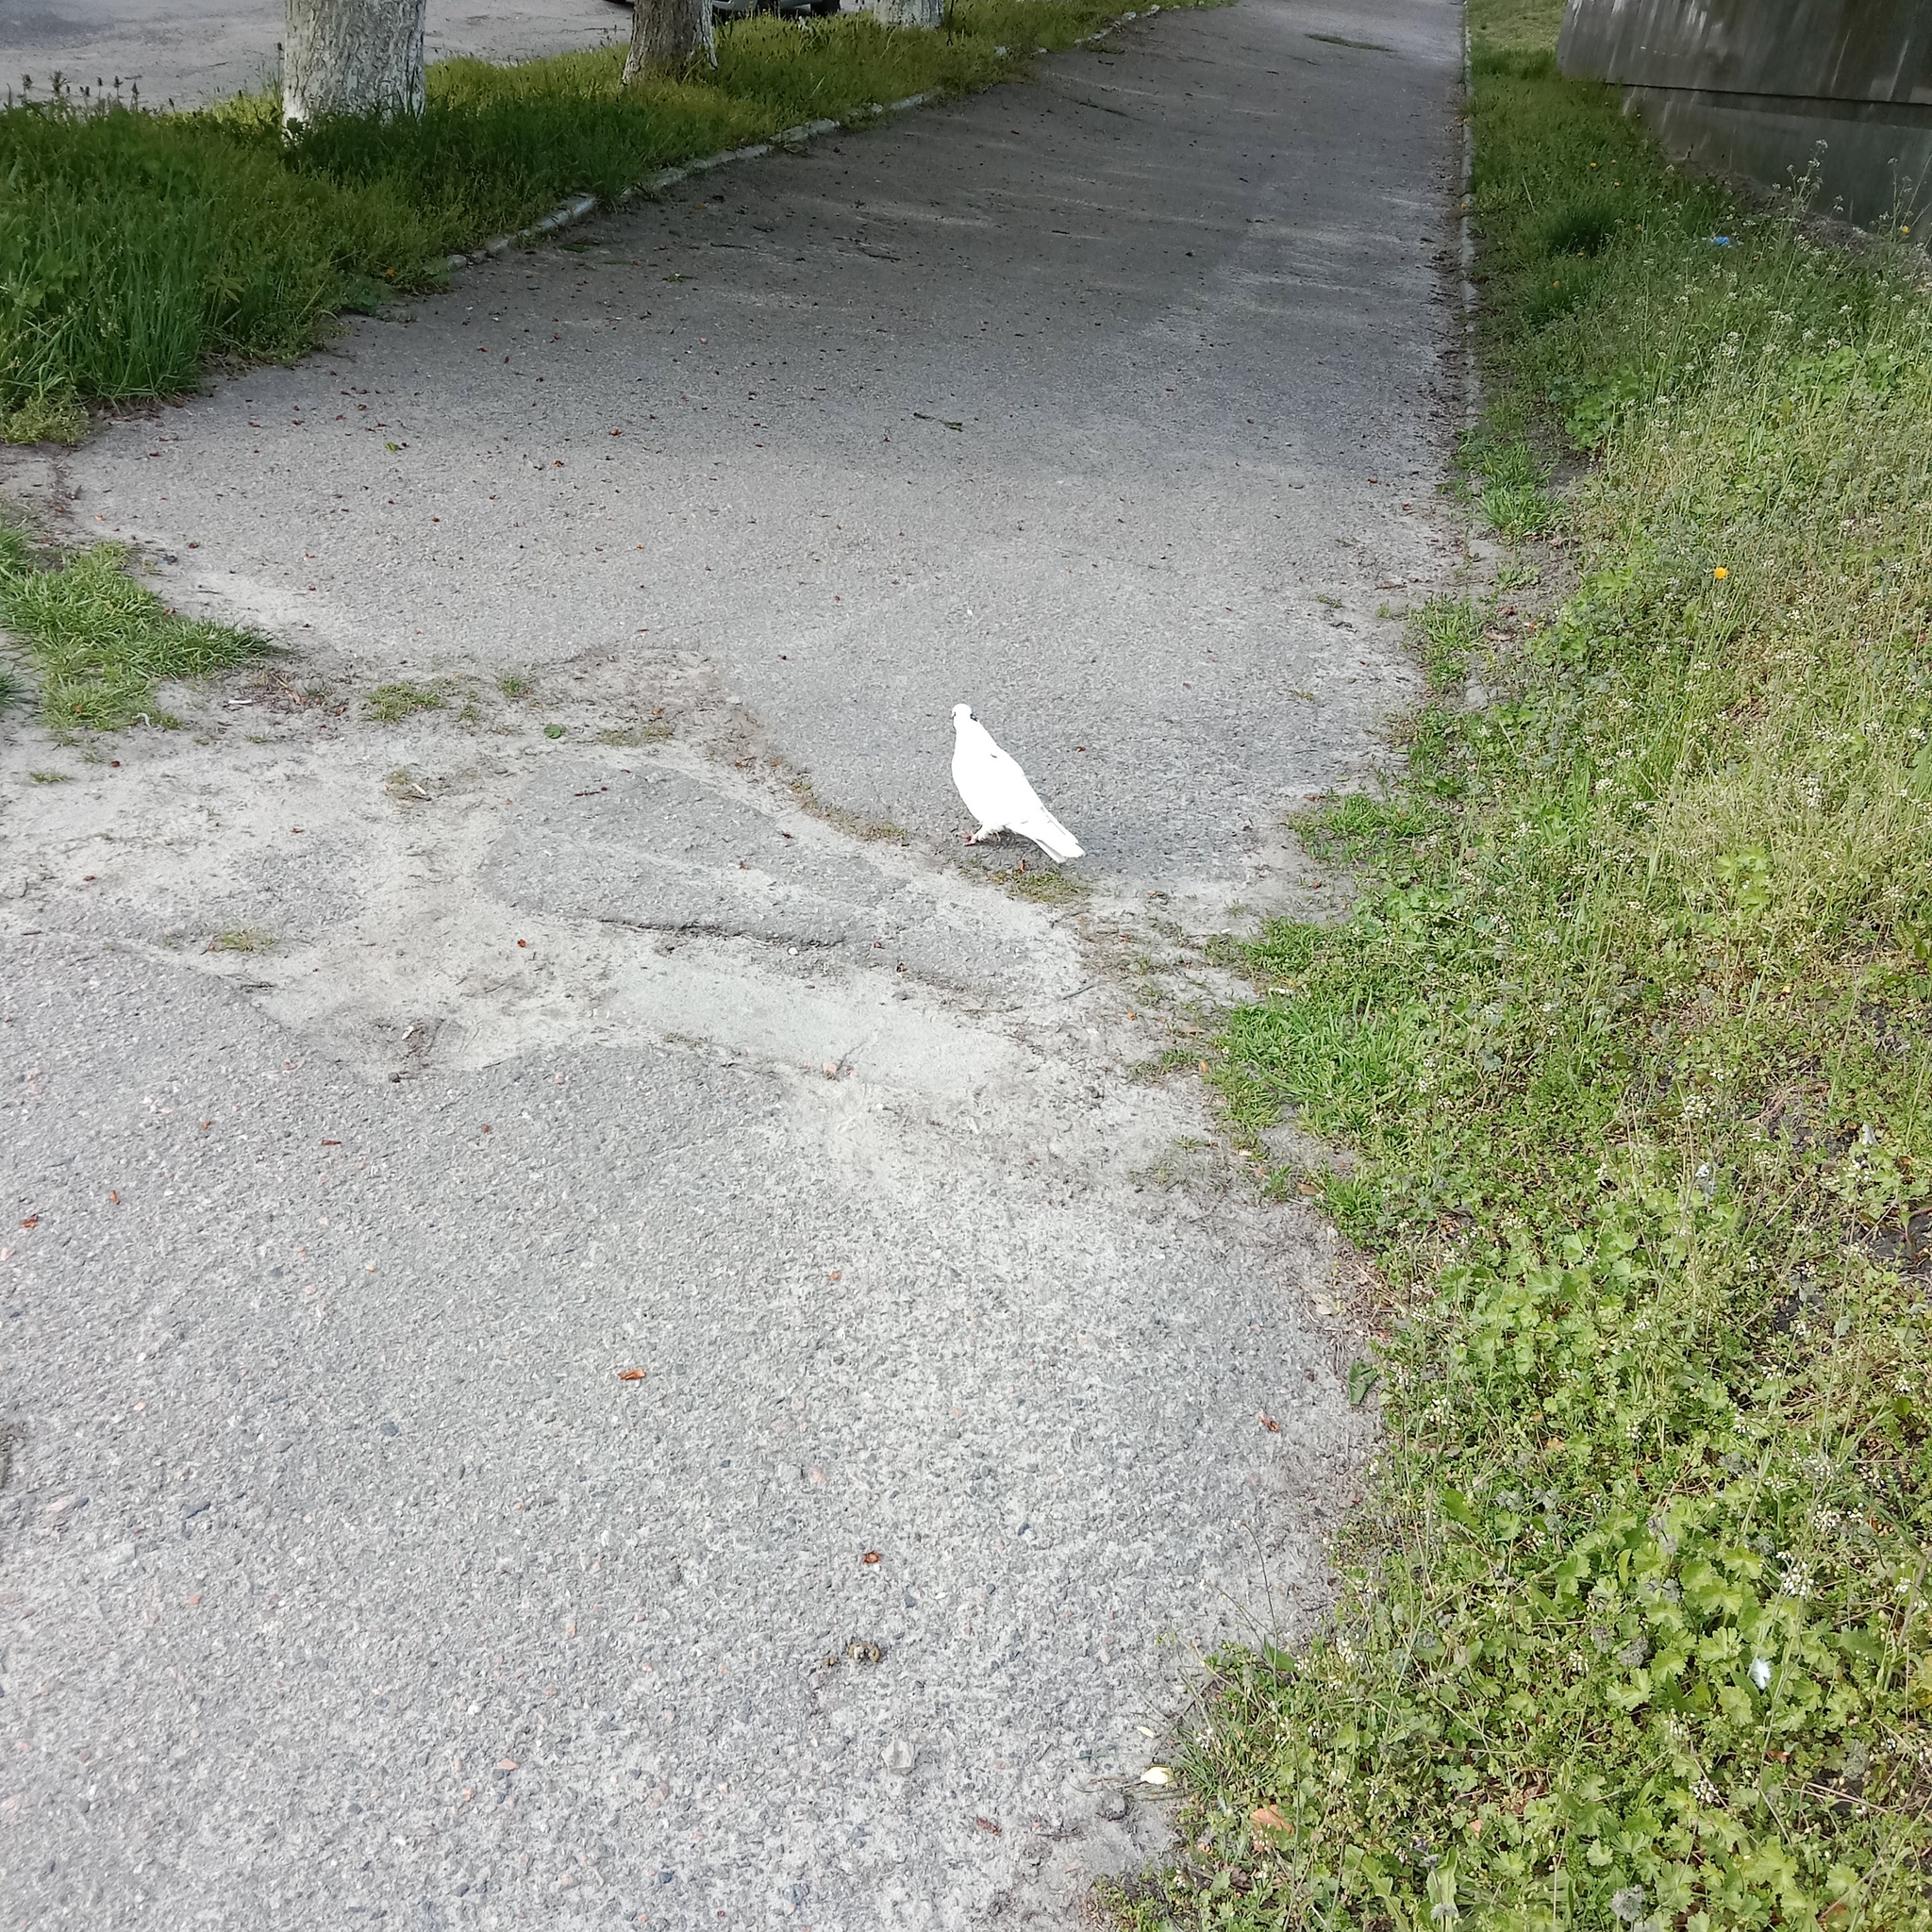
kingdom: Animalia
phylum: Chordata
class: Aves
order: Columbiformes
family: Columbidae
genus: Columba
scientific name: Columba livia
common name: Rock pigeon
